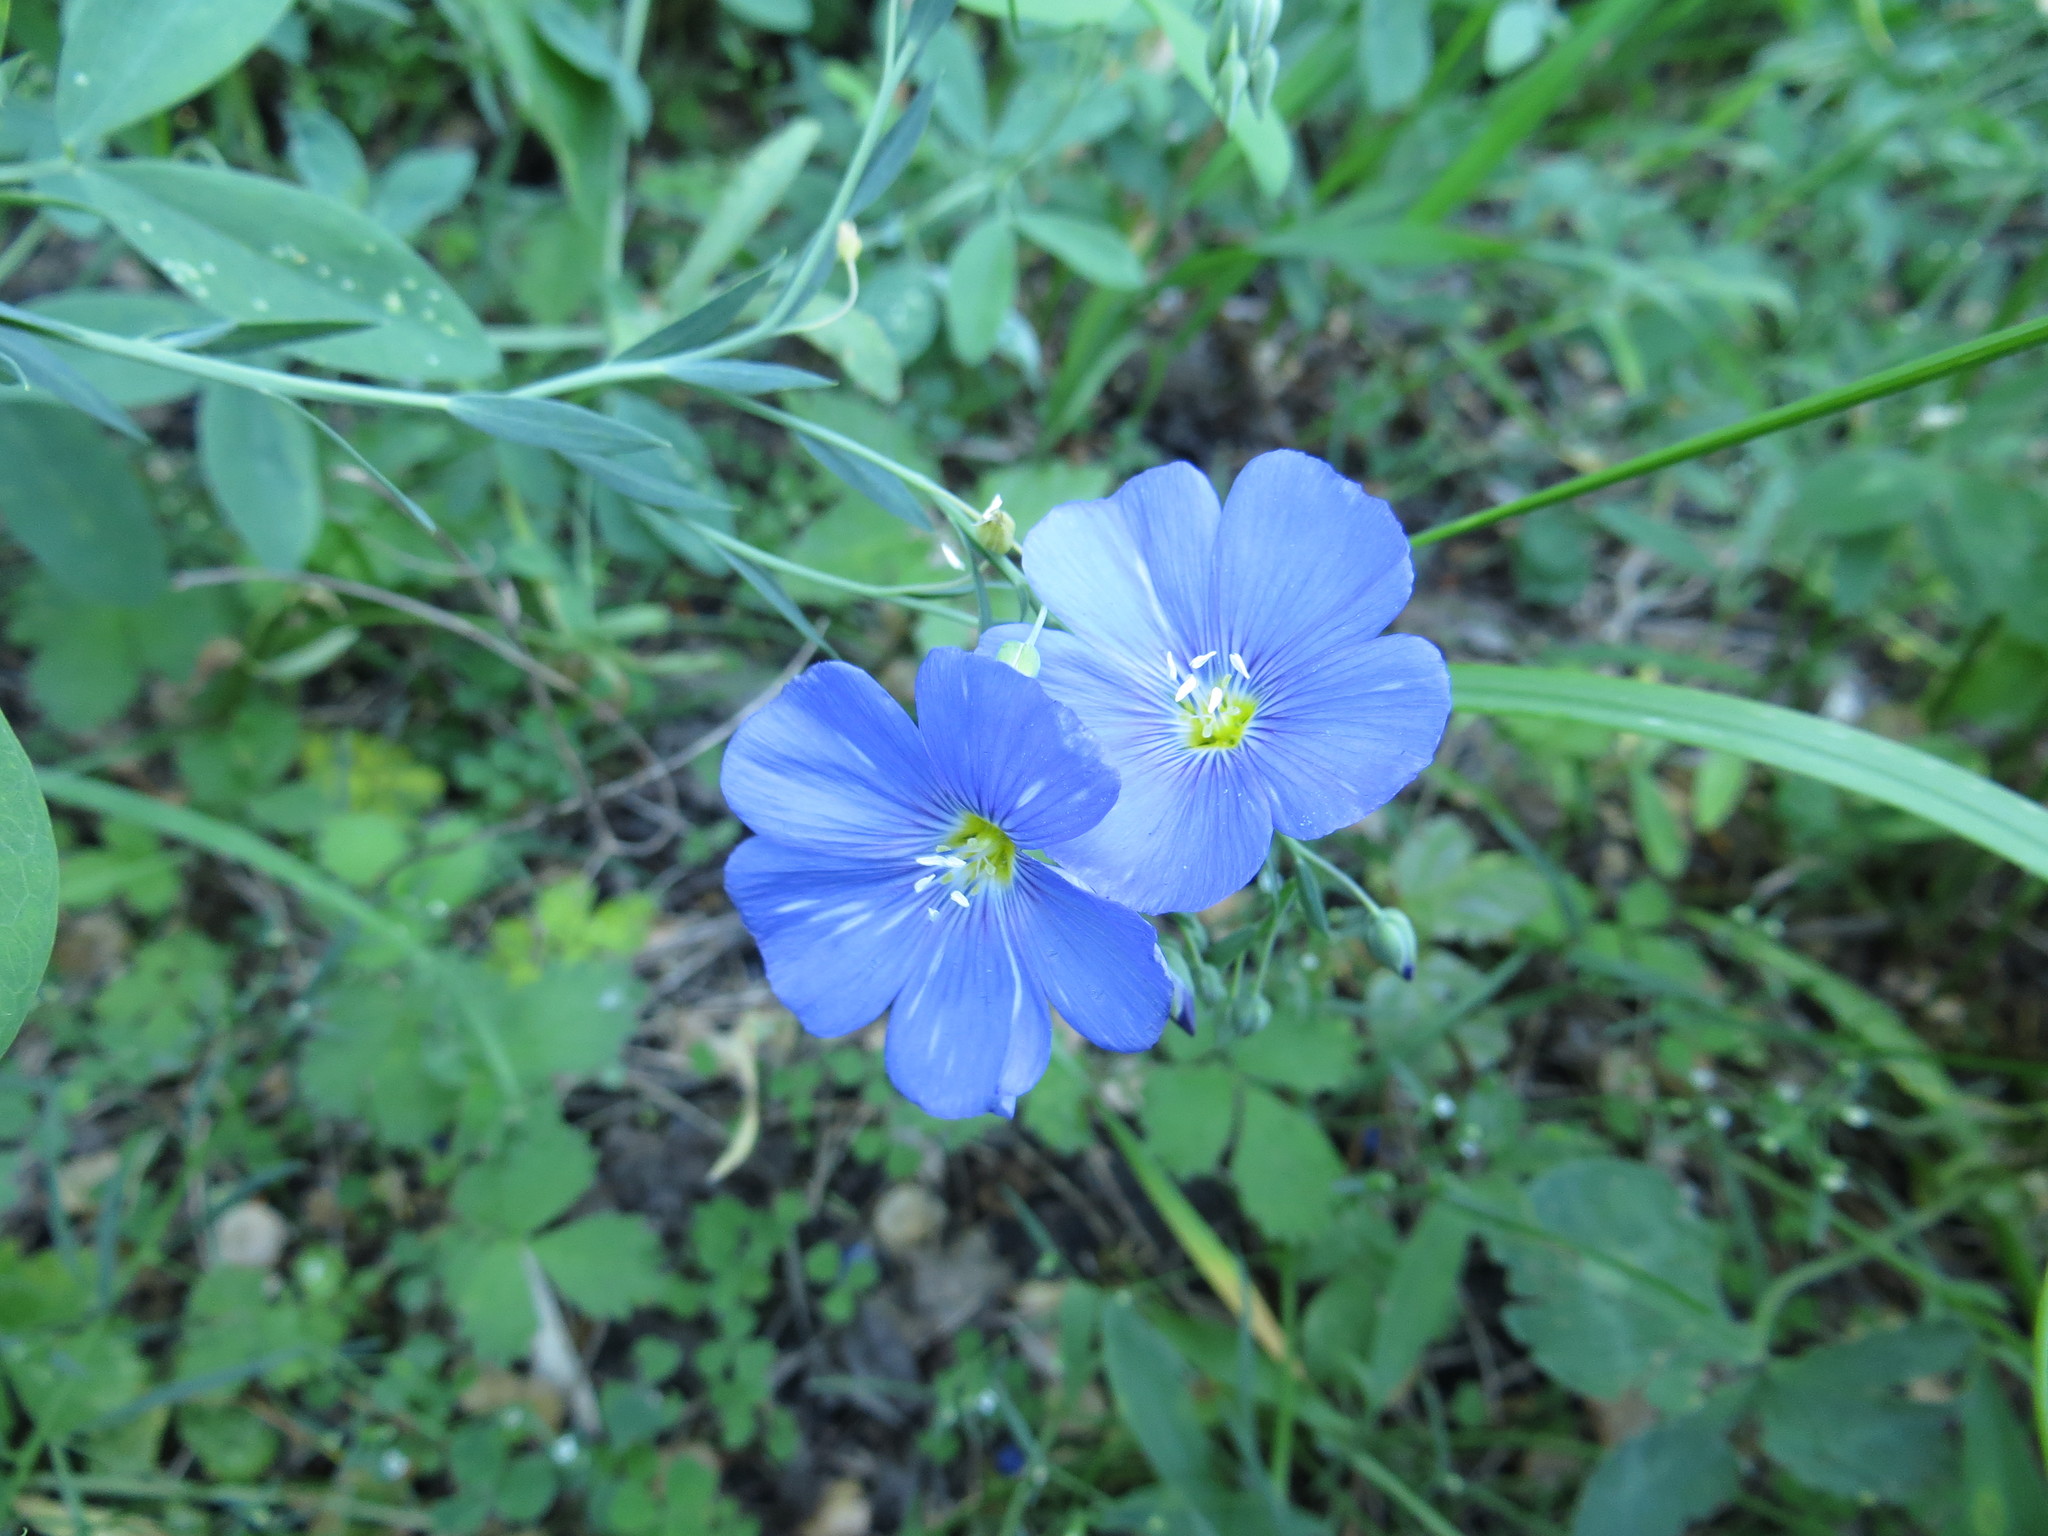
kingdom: Plantae
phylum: Tracheophyta
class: Magnoliopsida
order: Malpighiales
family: Linaceae
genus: Linum
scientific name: Linum perenne
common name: Blue flax
